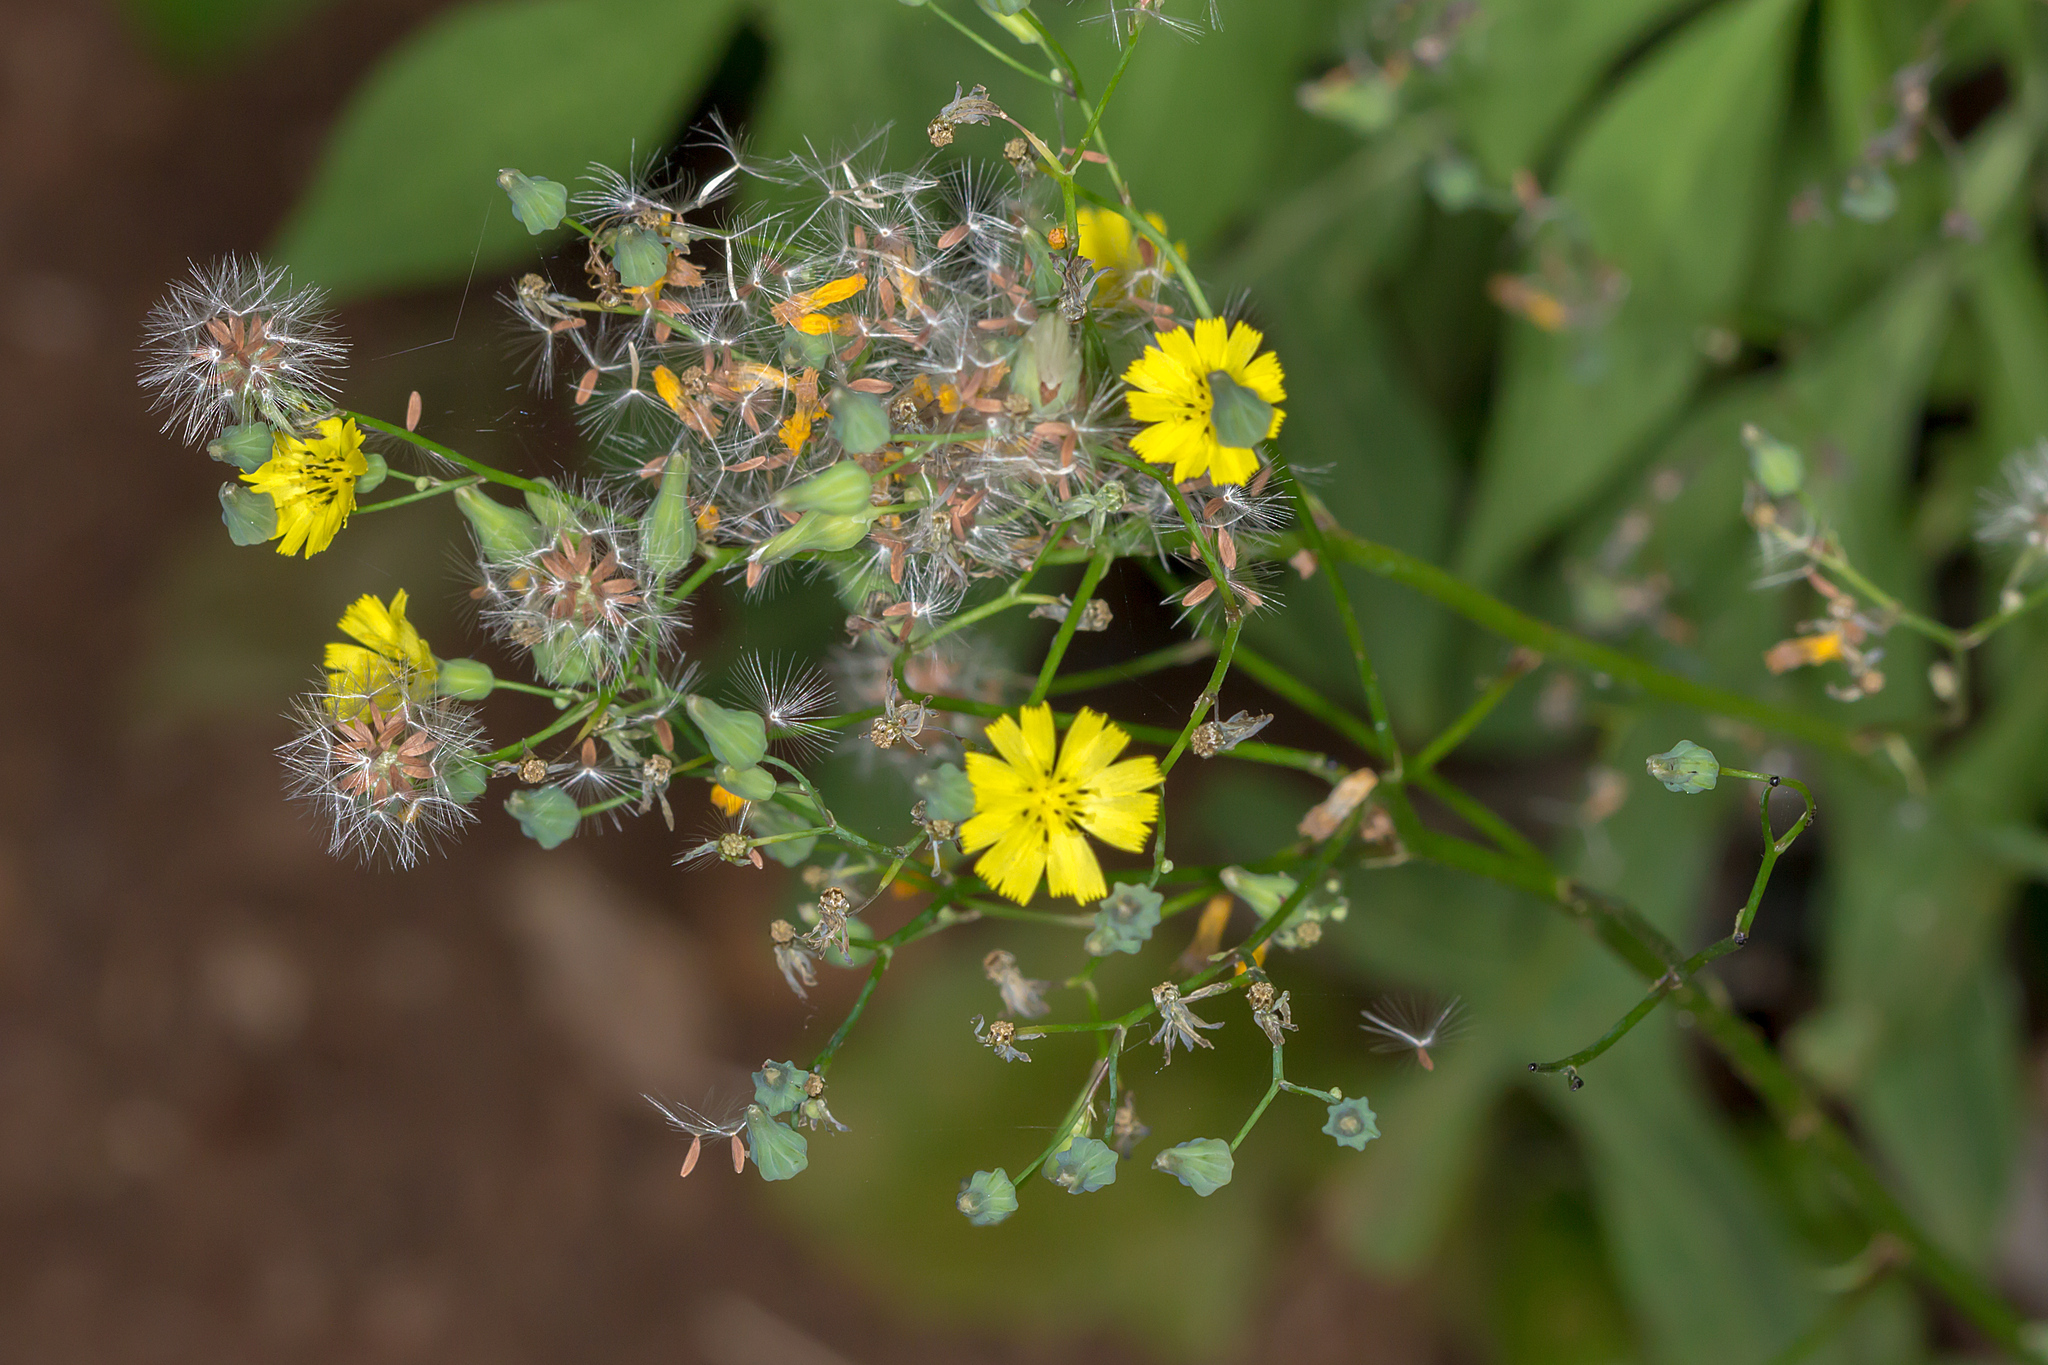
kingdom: Plantae
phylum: Tracheophyta
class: Magnoliopsida
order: Asterales
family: Asteraceae
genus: Youngia
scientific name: Youngia japonica
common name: Oriental false hawksbeard
